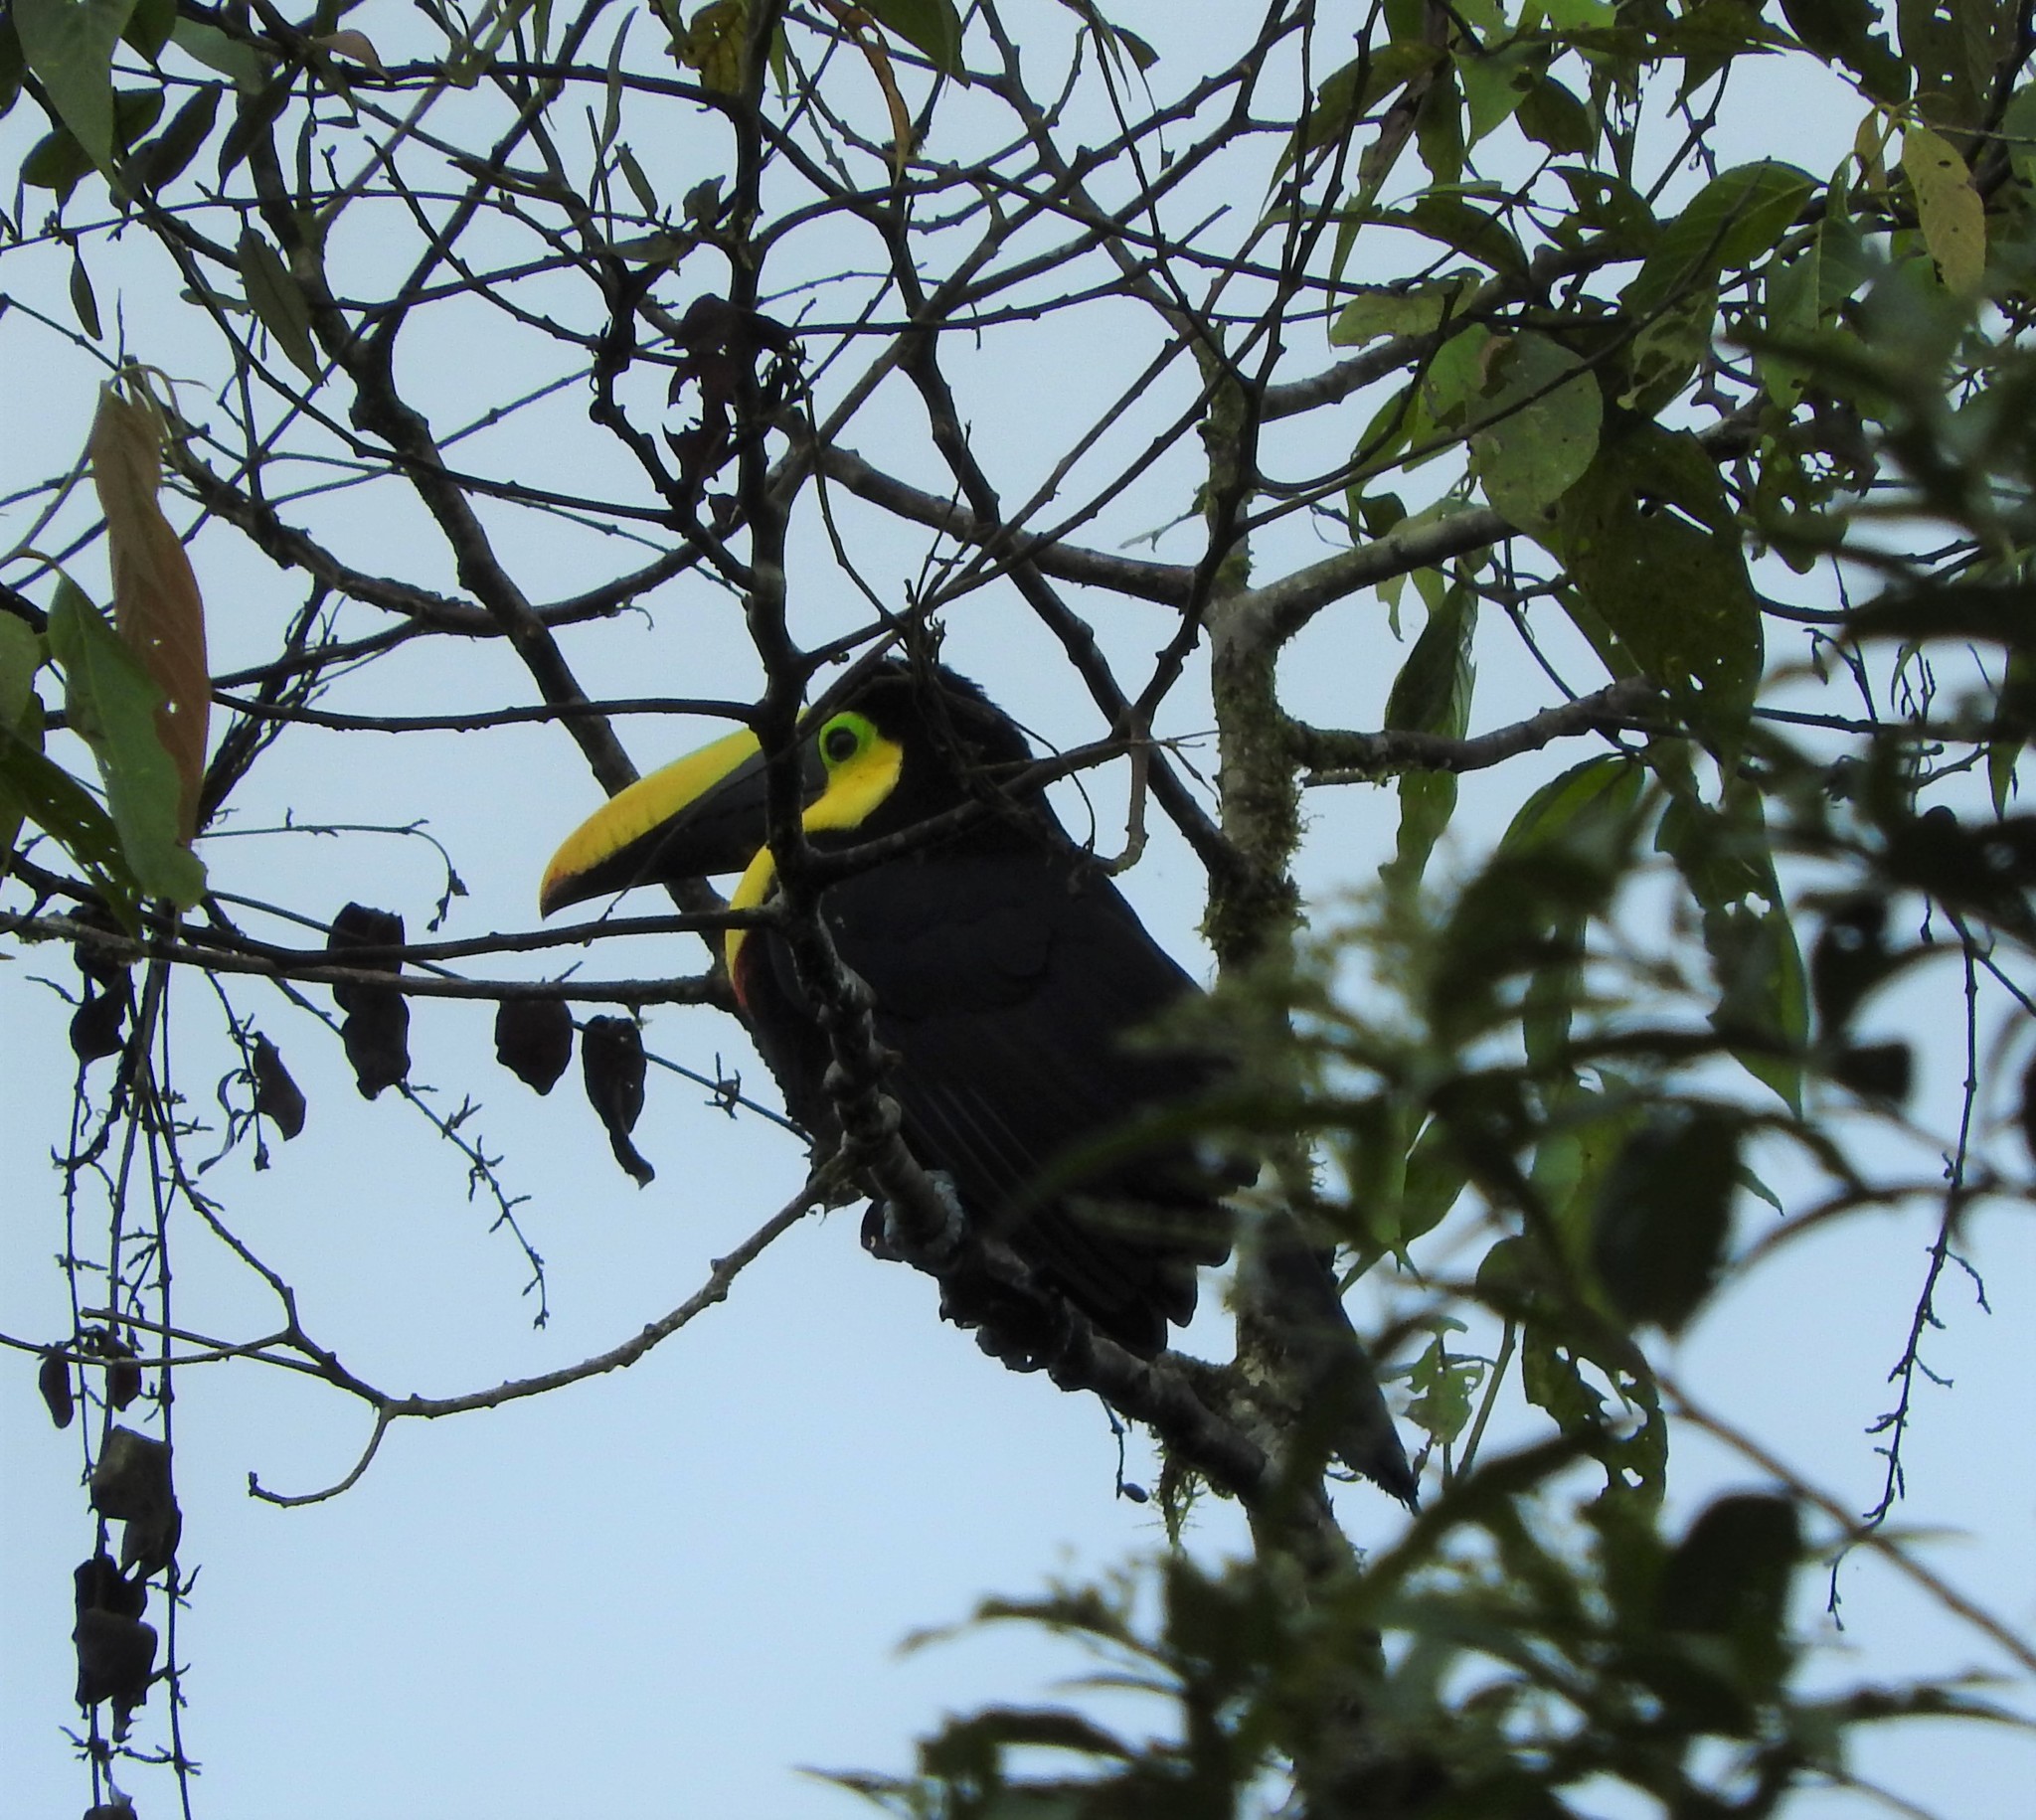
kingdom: Animalia
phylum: Chordata
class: Aves
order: Piciformes
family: Ramphastidae
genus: Ramphastos
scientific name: Ramphastos brevis
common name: Choco toucan
